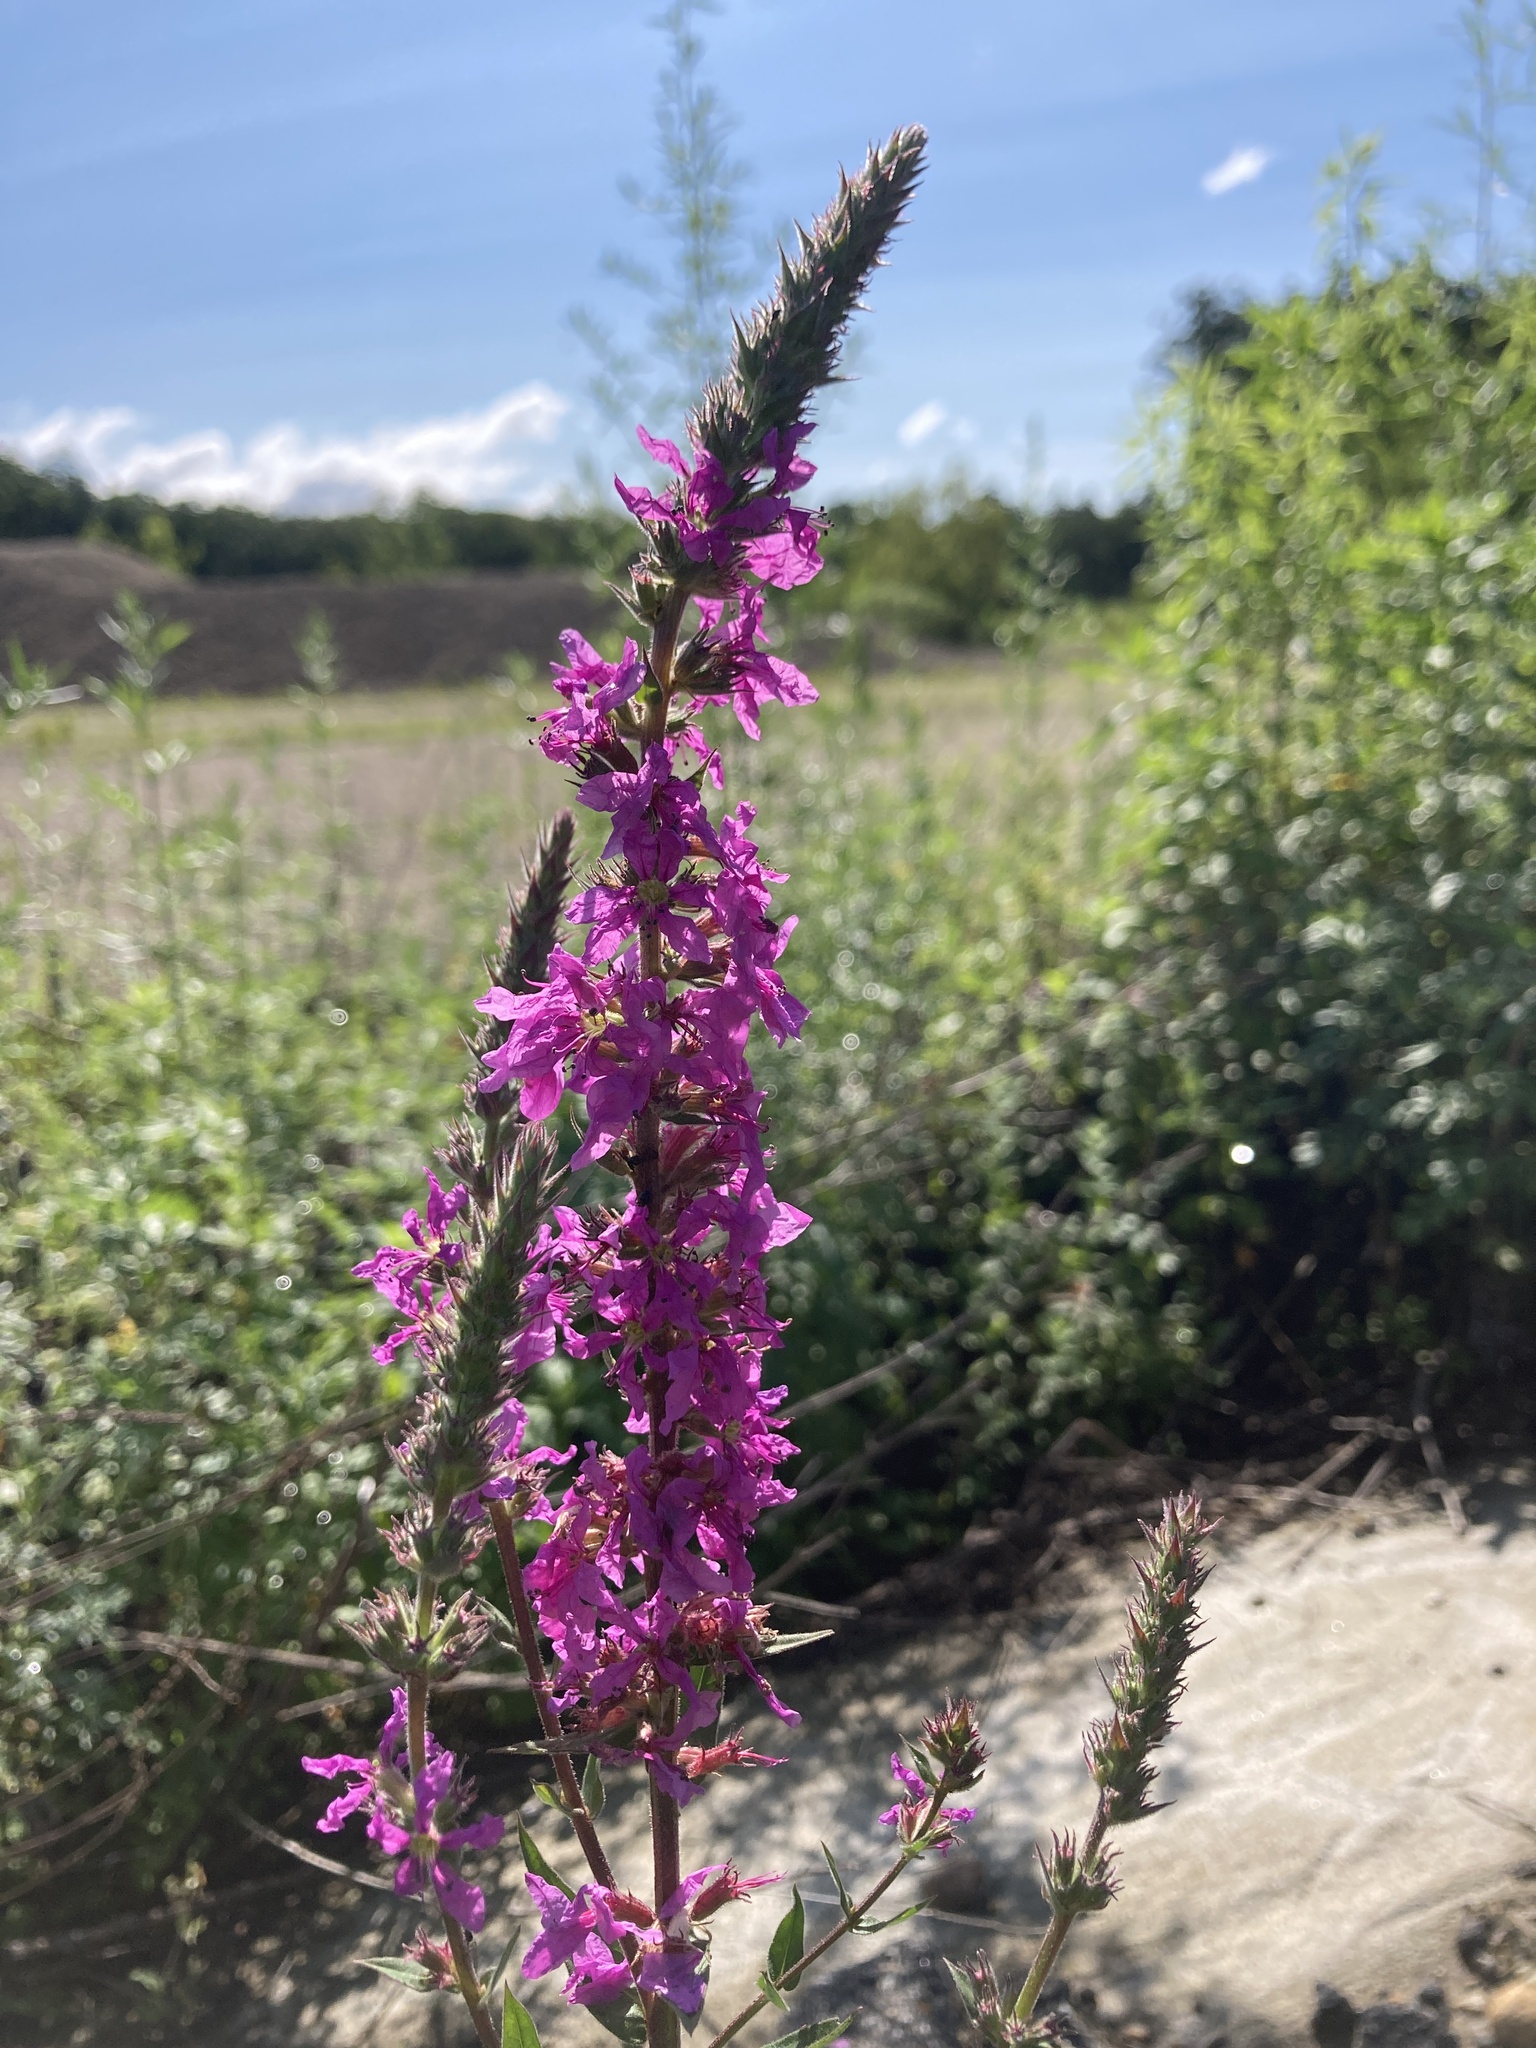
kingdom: Plantae
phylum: Tracheophyta
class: Magnoliopsida
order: Myrtales
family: Lythraceae
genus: Lythrum
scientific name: Lythrum salicaria
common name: Purple loosestrife
